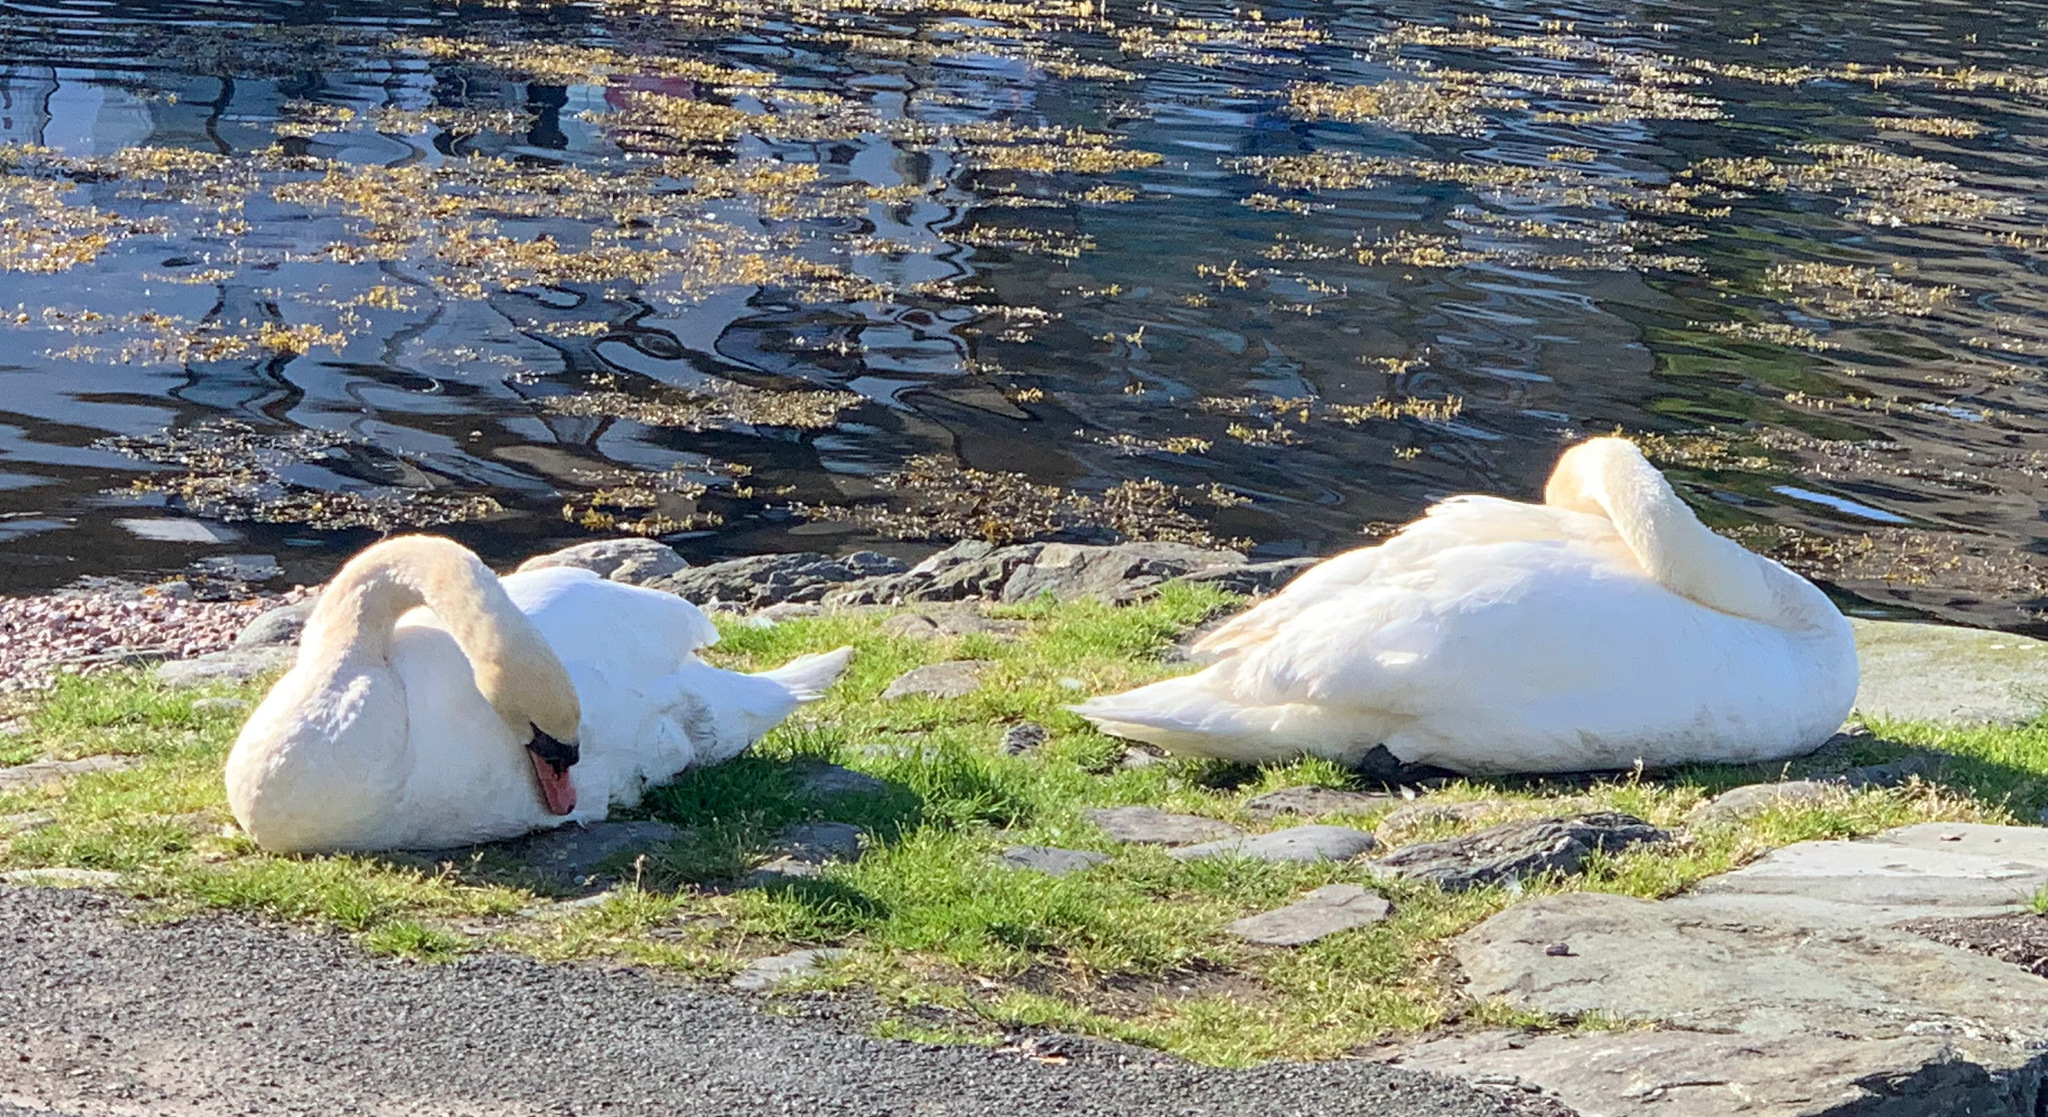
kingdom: Animalia
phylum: Chordata
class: Aves
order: Anseriformes
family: Anatidae
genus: Cygnus
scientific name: Cygnus olor
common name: Mute swan
